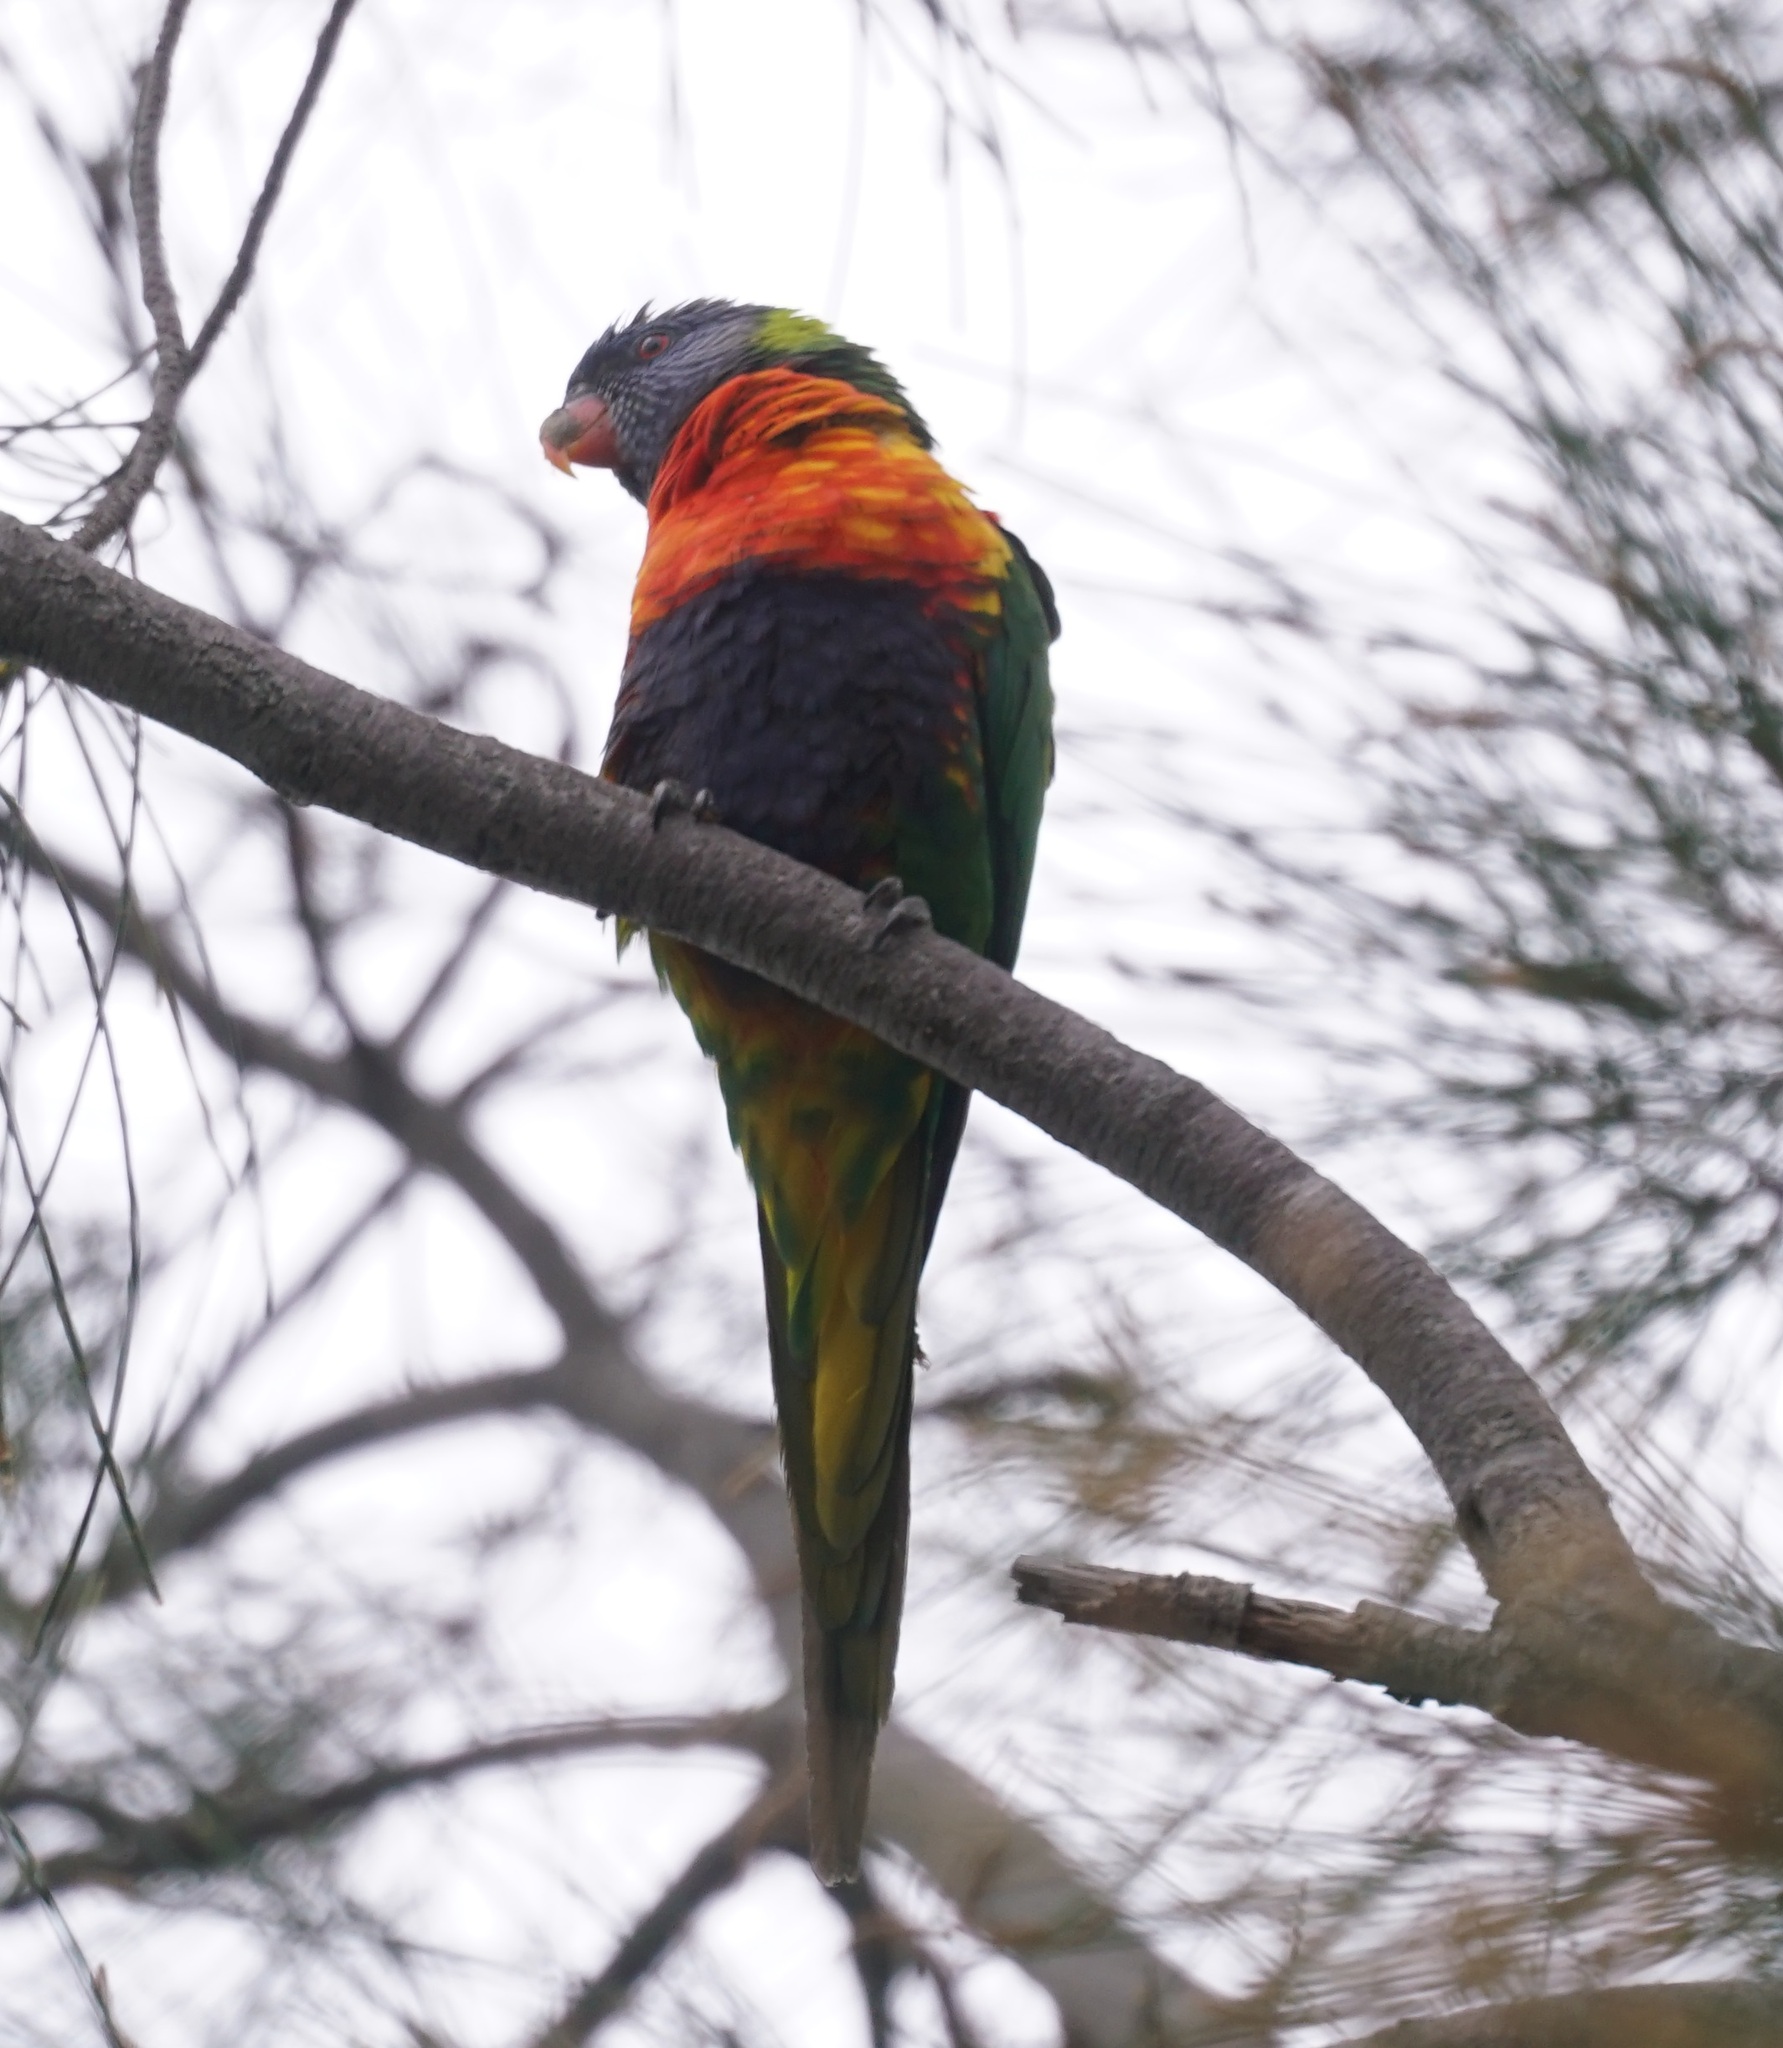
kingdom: Animalia
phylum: Chordata
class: Aves
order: Psittaciformes
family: Psittacidae
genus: Trichoglossus
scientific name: Trichoglossus haematodus
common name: Coconut lorikeet
